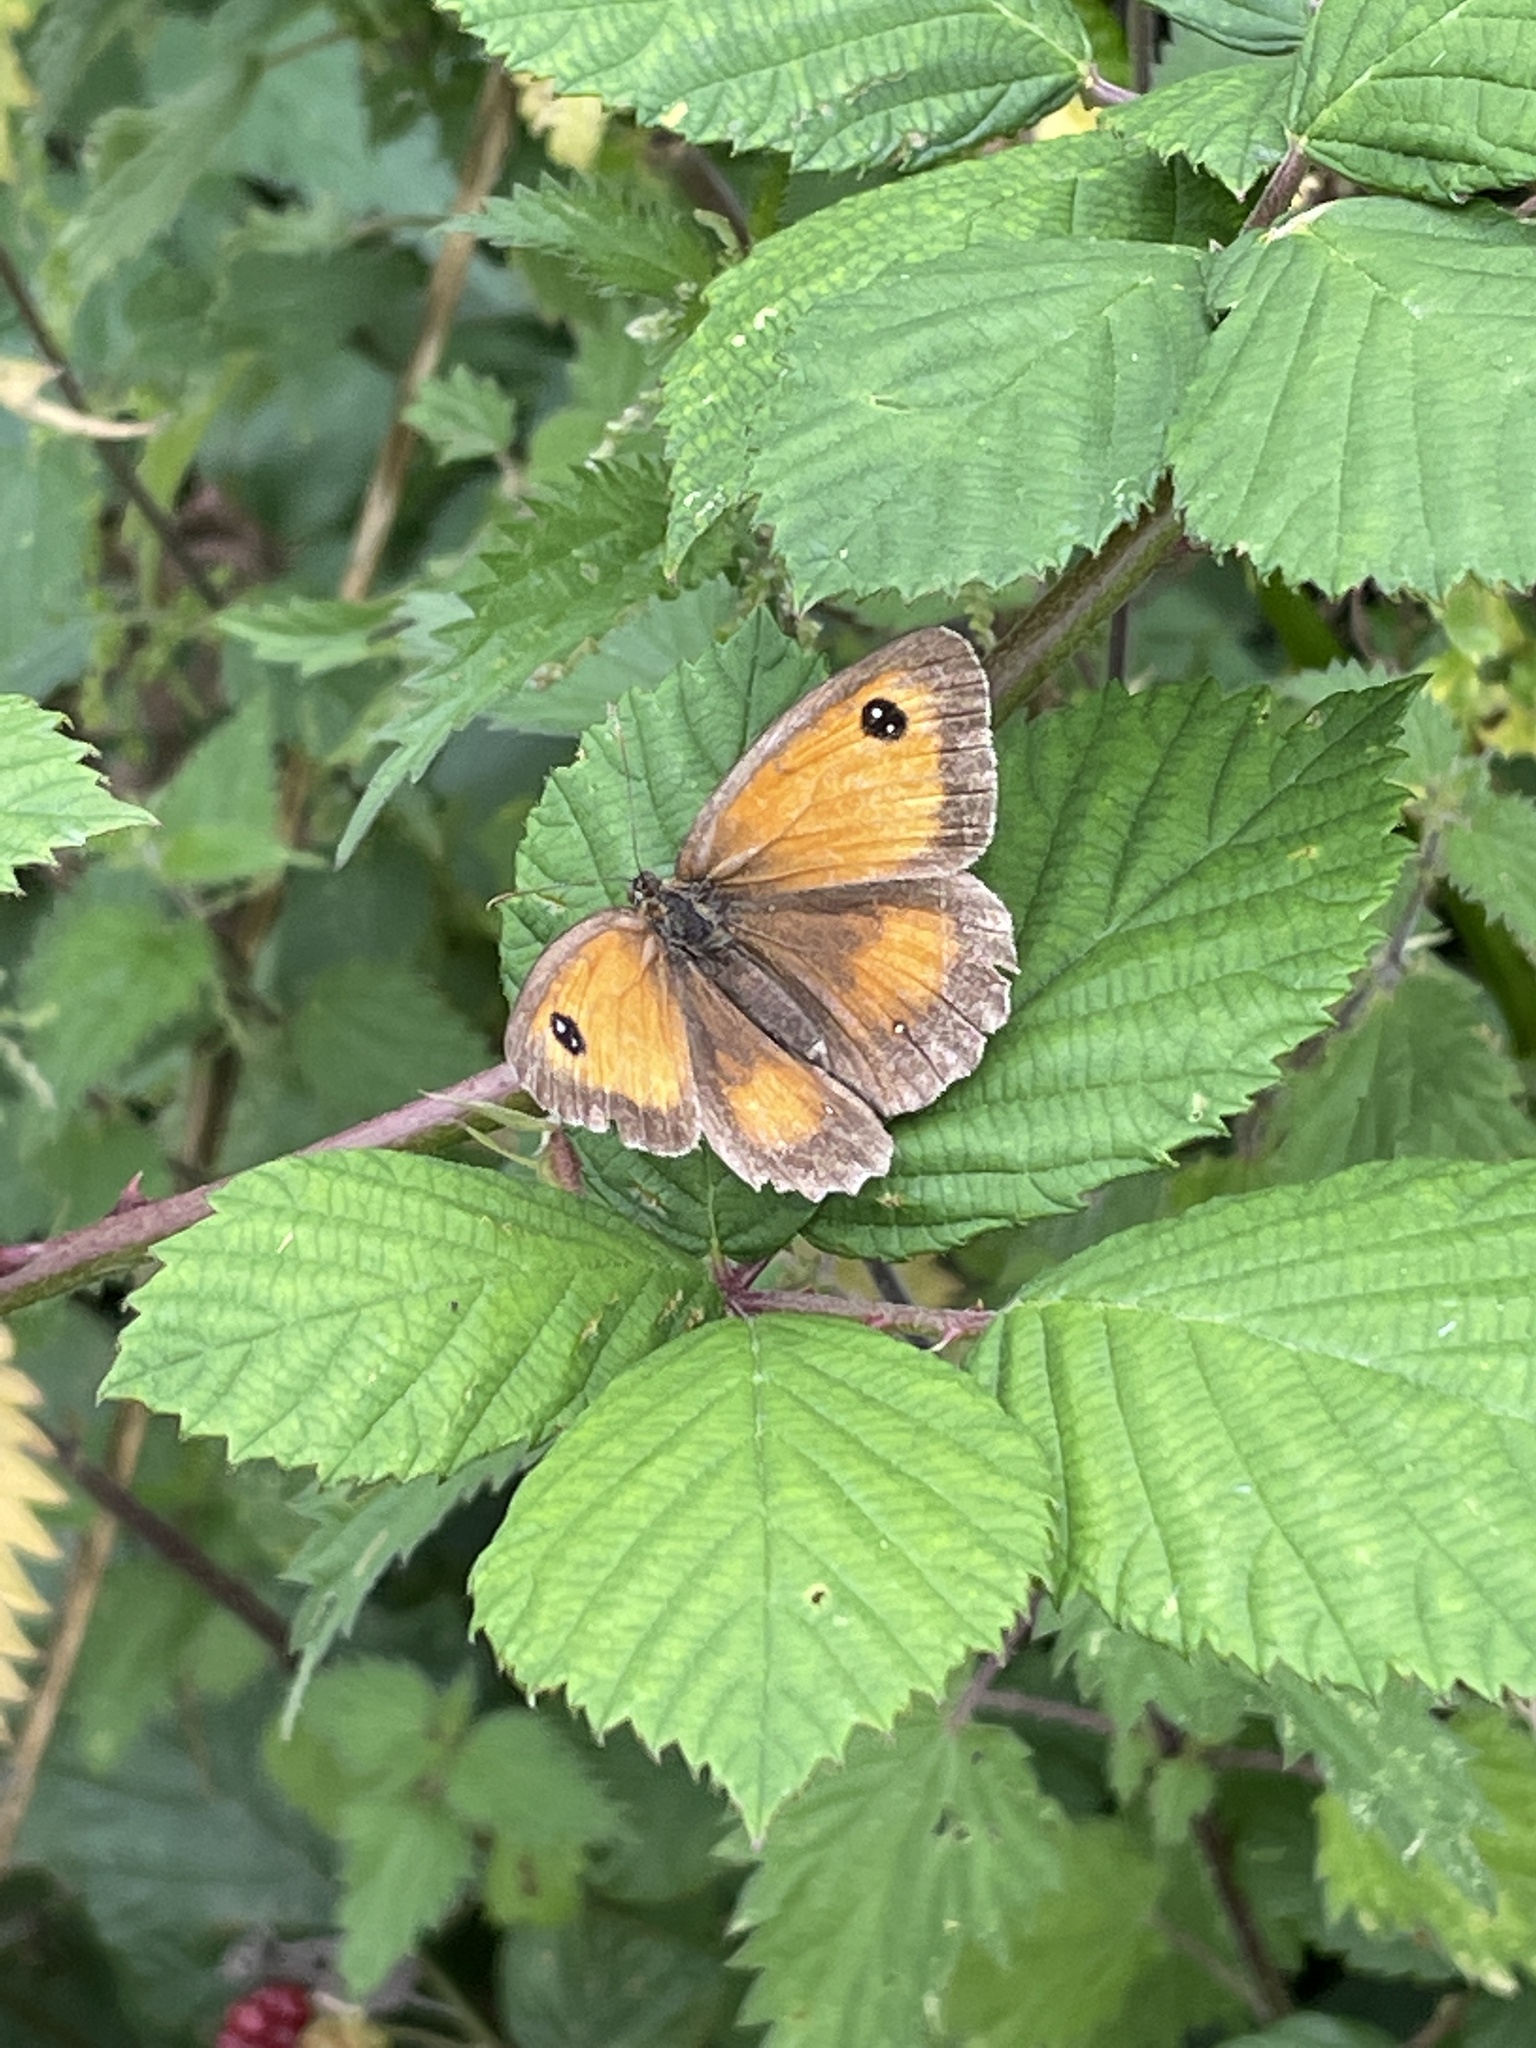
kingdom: Animalia
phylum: Arthropoda
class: Insecta
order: Lepidoptera
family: Nymphalidae
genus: Pyronia
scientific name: Pyronia tithonus
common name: Gatekeeper
